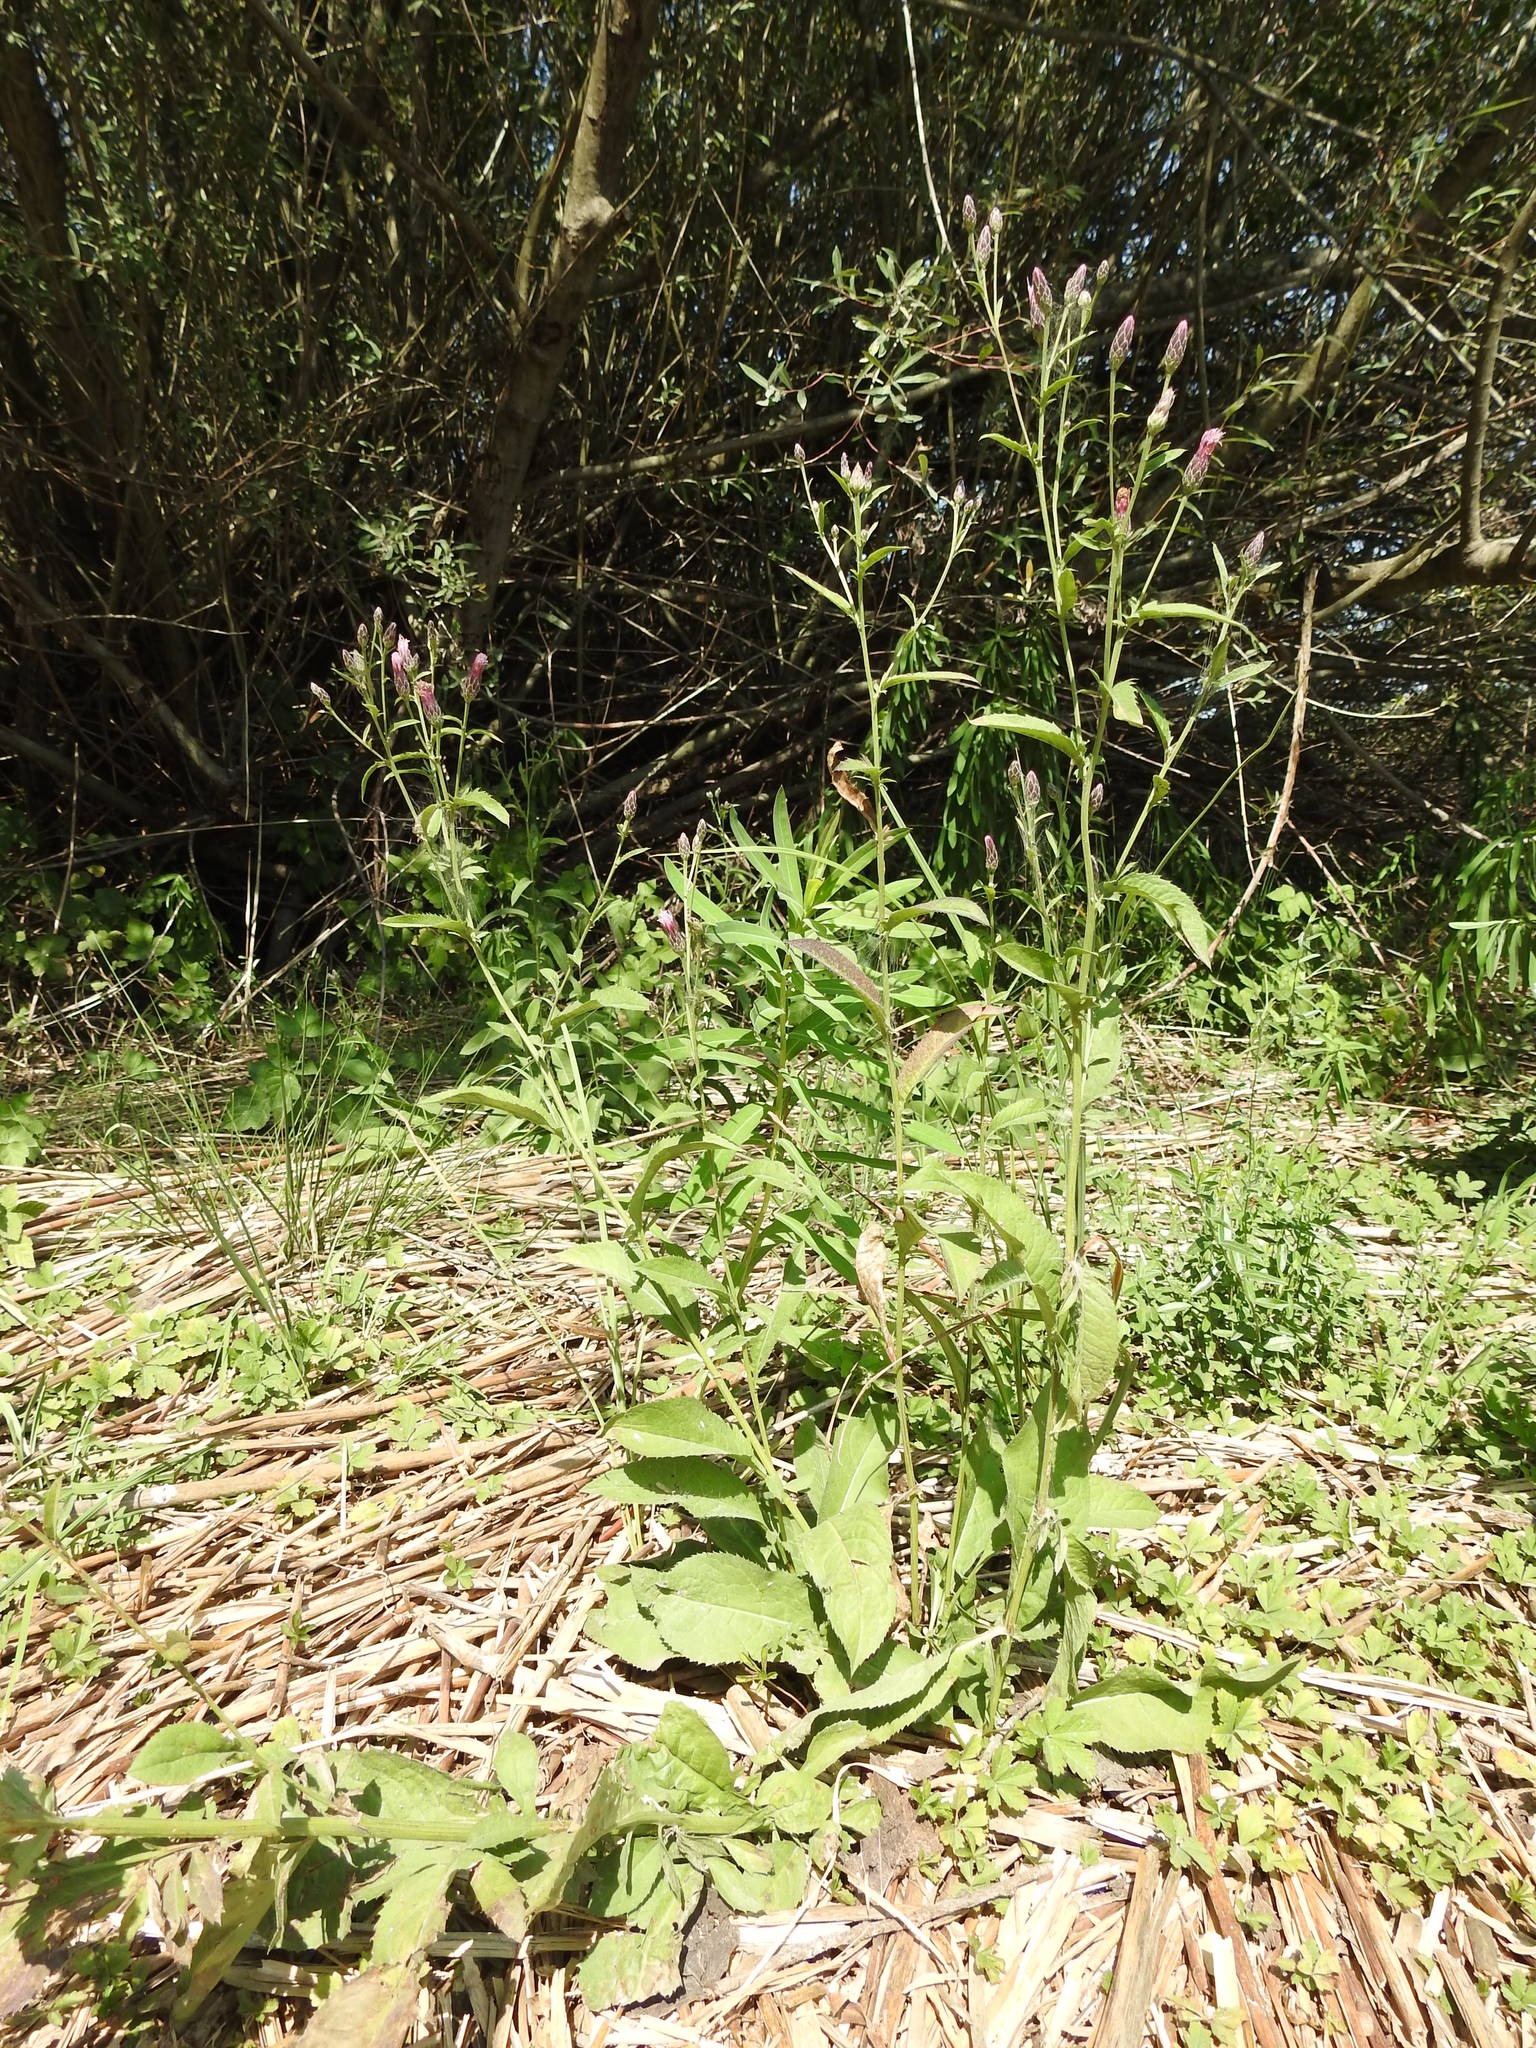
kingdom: Plantae
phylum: Tracheophyta
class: Magnoliopsida
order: Asterales
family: Asteraceae
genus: Serratula
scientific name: Serratula tinctoria
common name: Saw-wort
